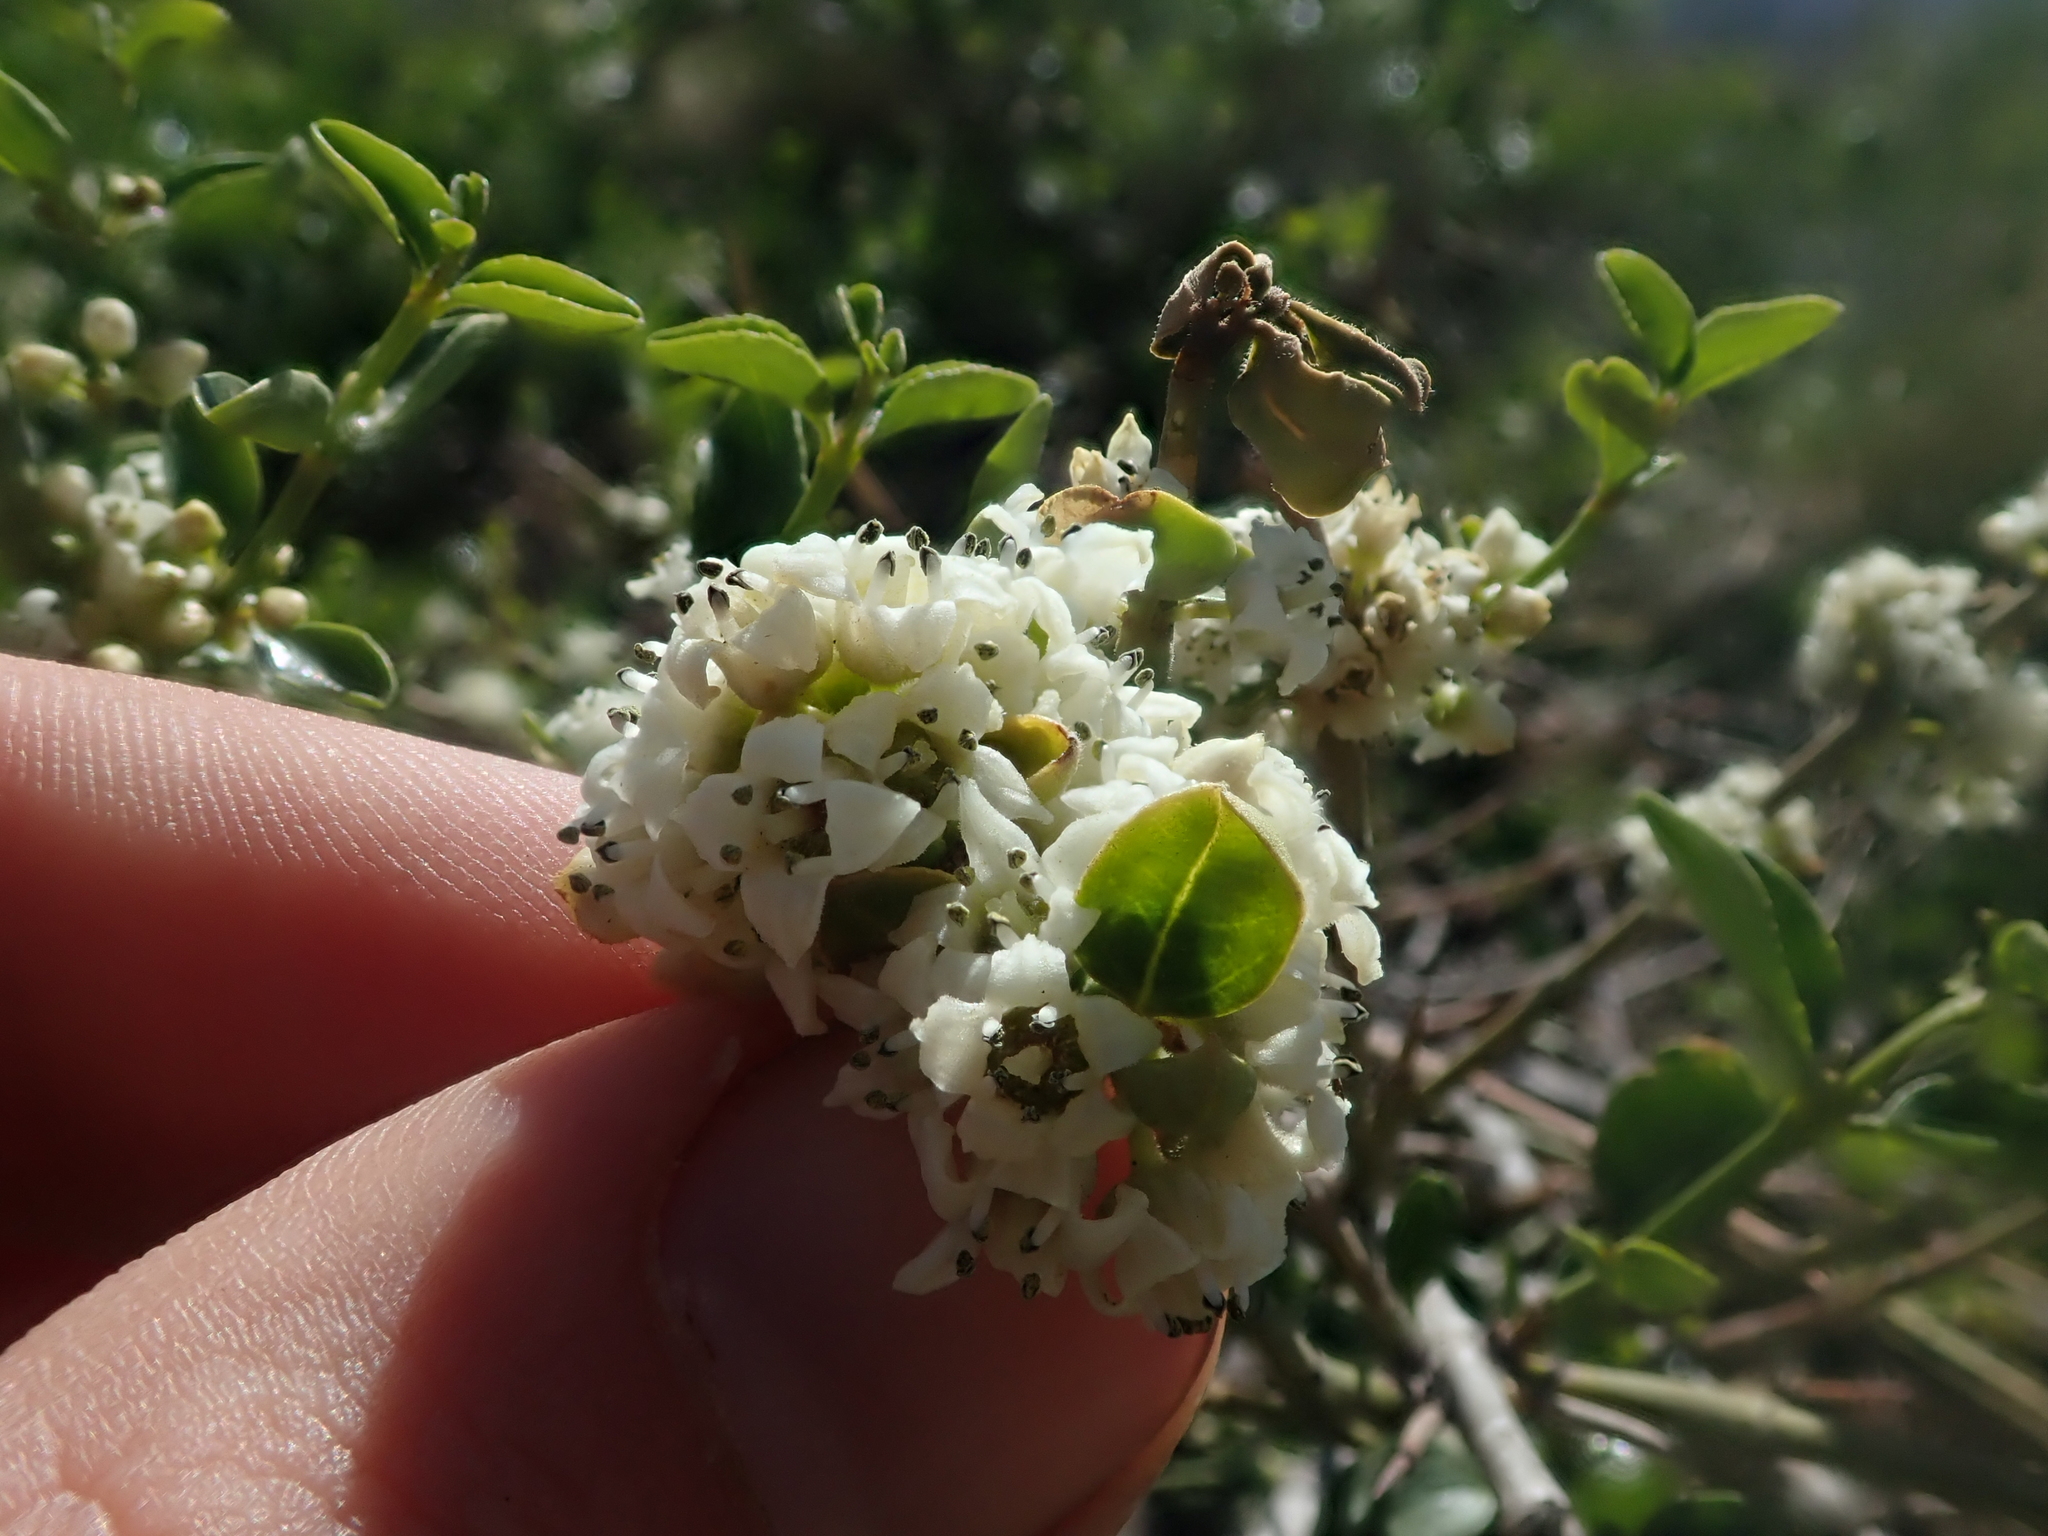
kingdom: Plantae
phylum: Tracheophyta
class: Magnoliopsida
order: Rosales
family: Rhamnaceae
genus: Discaria
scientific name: Discaria chacaye
